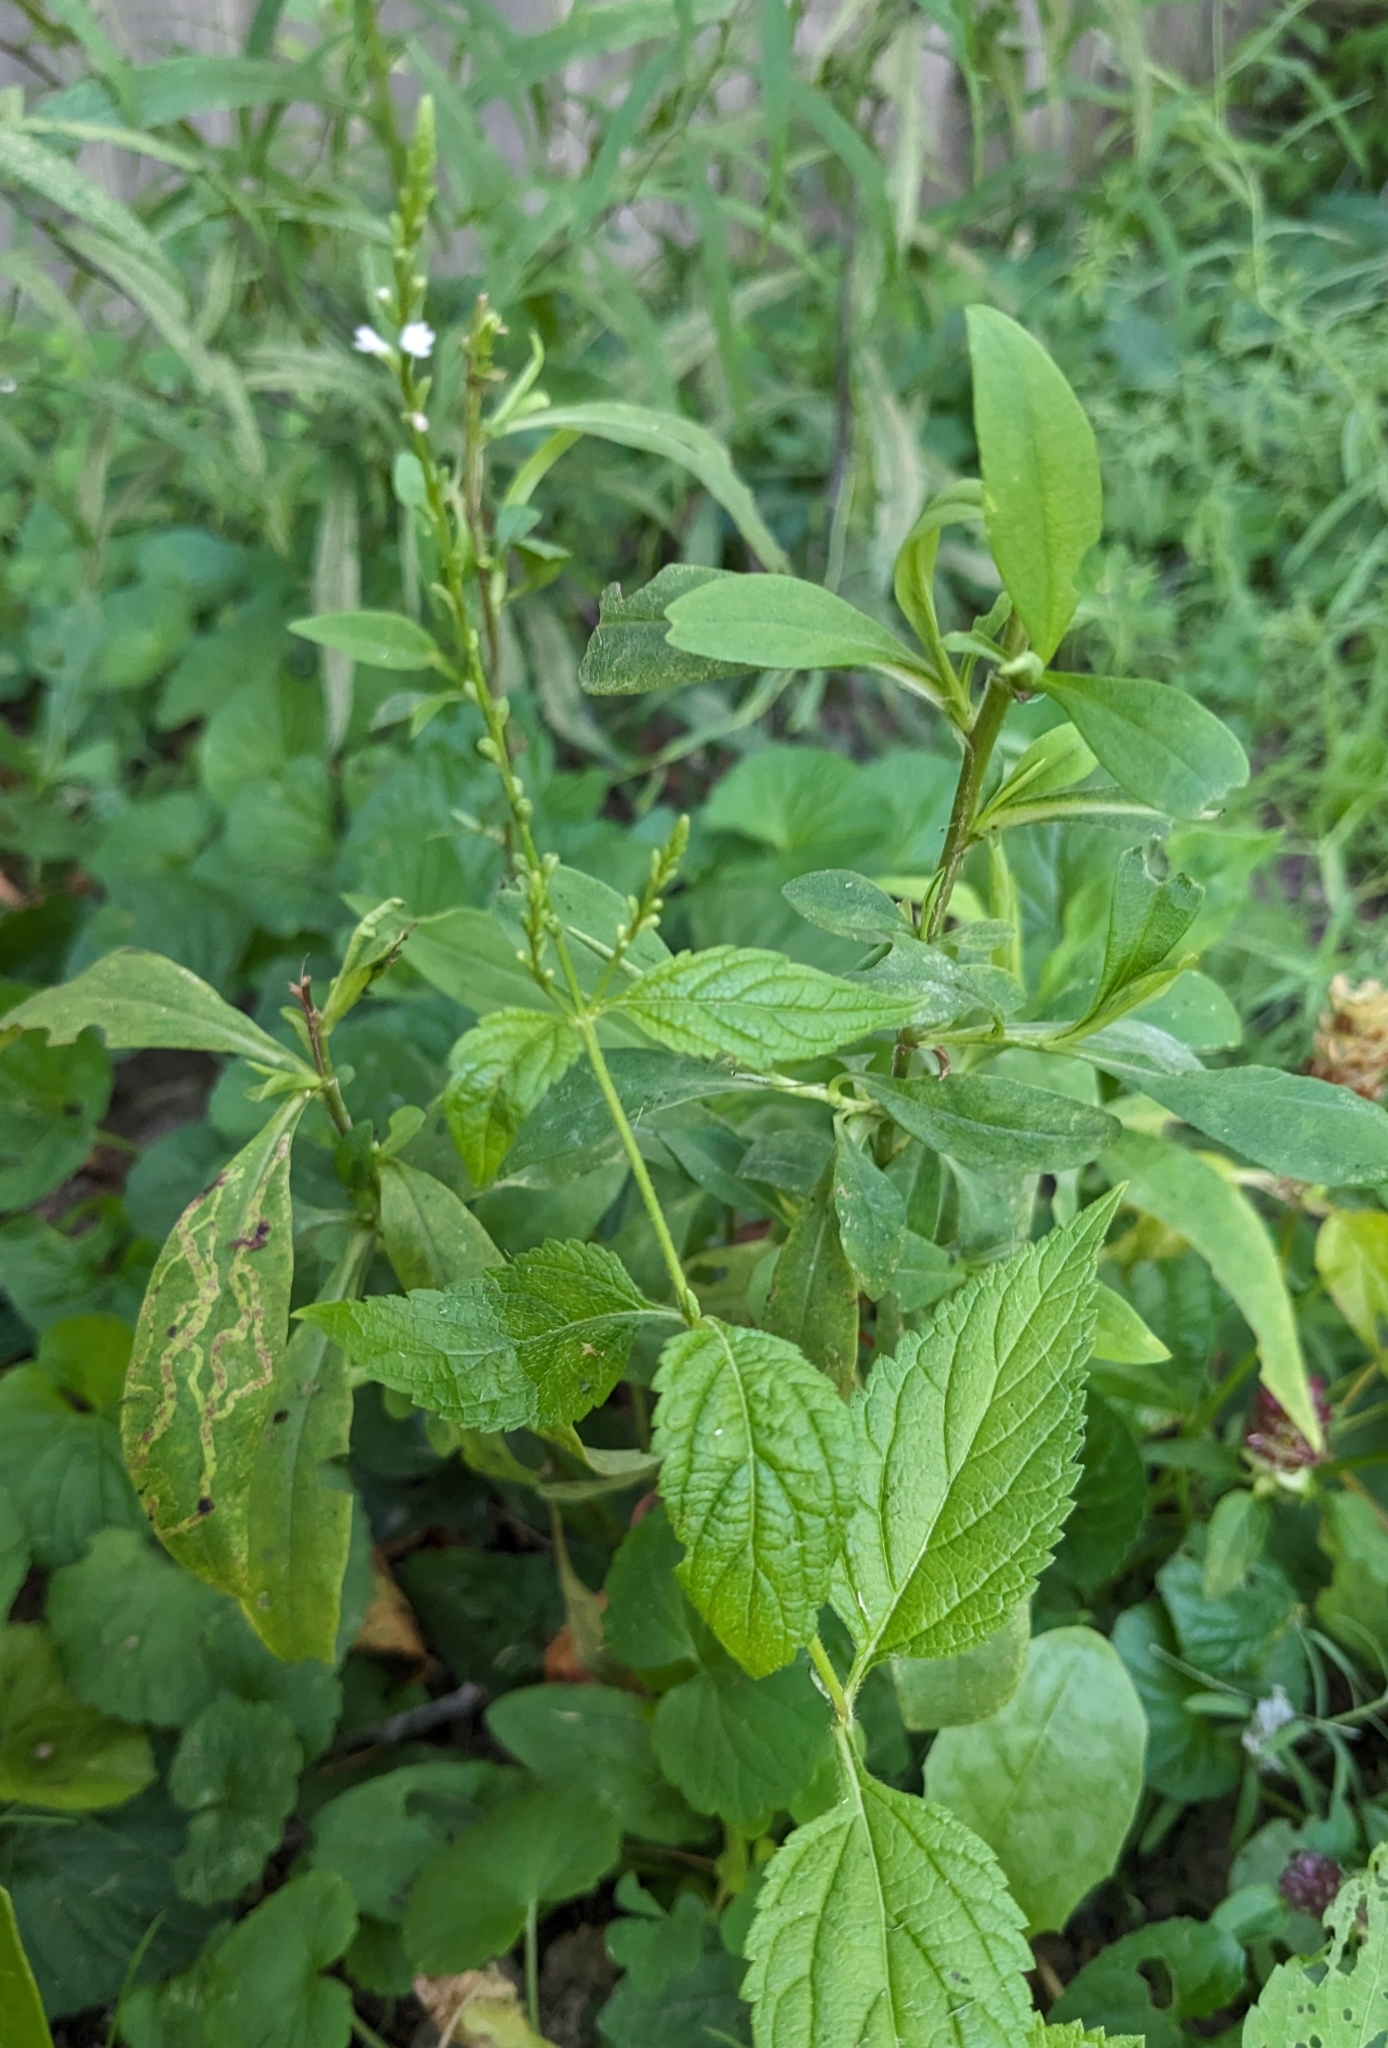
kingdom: Plantae
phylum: Tracheophyta
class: Magnoliopsida
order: Lamiales
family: Verbenaceae
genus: Verbena
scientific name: Verbena urticifolia
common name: Nettle-leaved vervain
